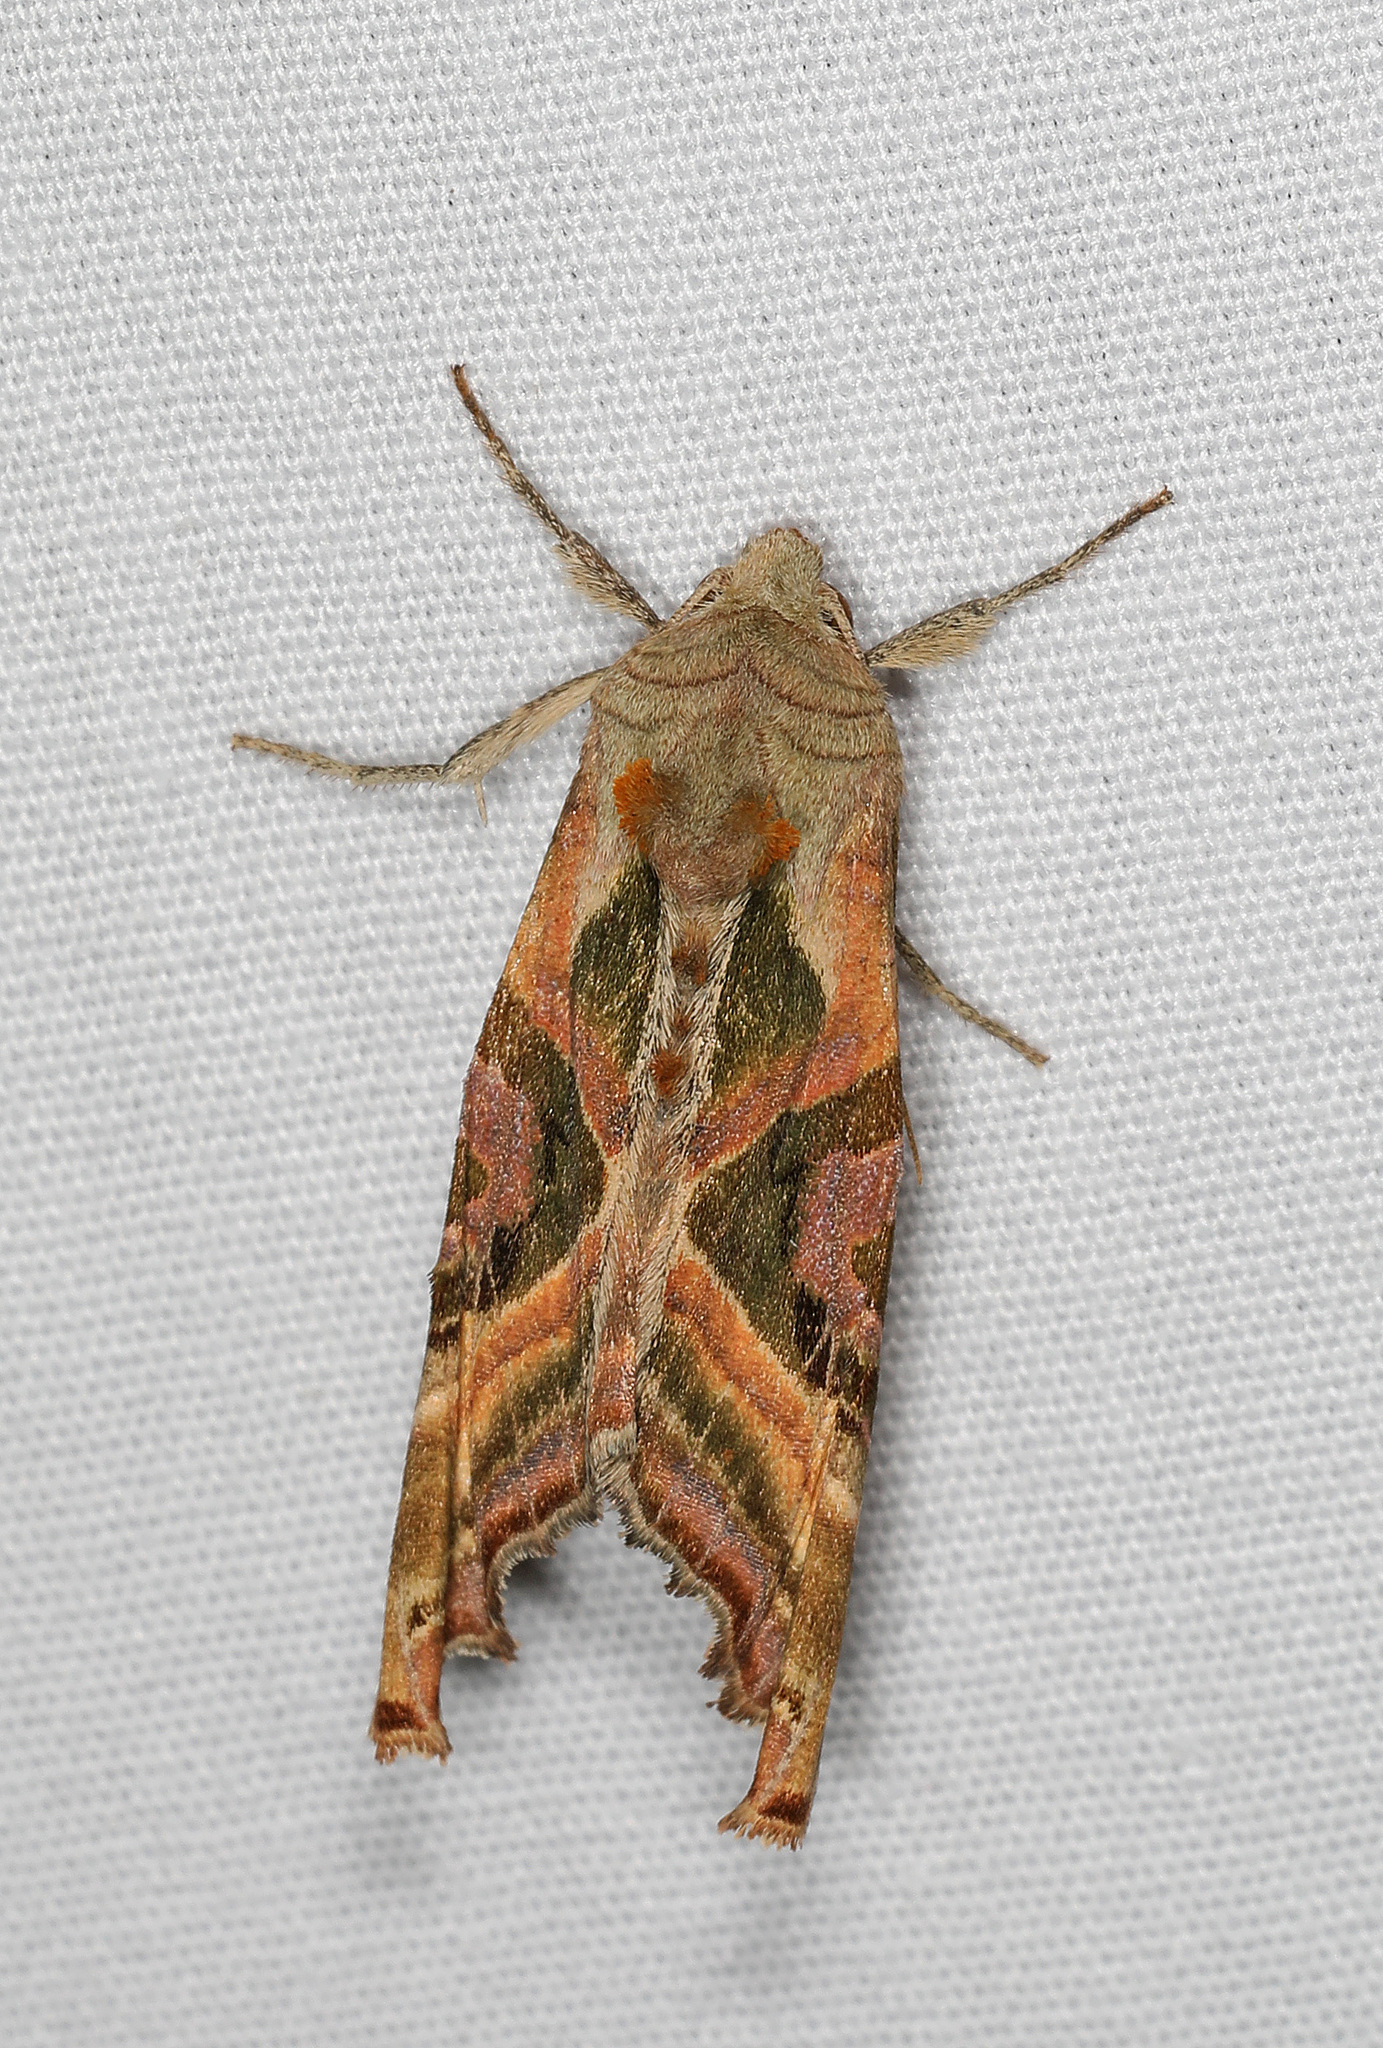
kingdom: Animalia
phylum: Arthropoda
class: Insecta
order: Lepidoptera
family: Noctuidae
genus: Phlogophora
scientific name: Phlogophora iris
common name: Olive angle shades
